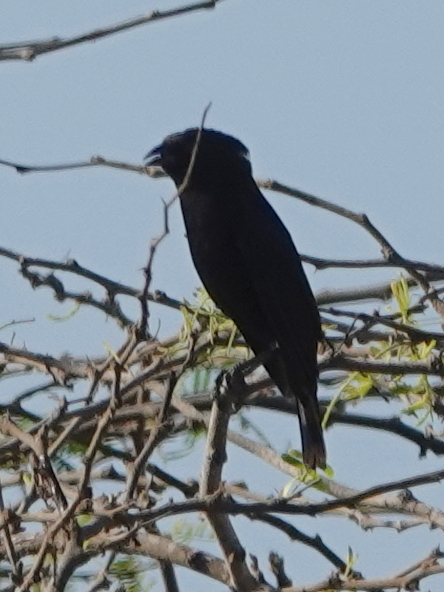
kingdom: Animalia
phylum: Chordata
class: Aves
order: Passeriformes
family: Icteridae
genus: Molothrus
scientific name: Molothrus aeneus
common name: Bronzed cowbird
